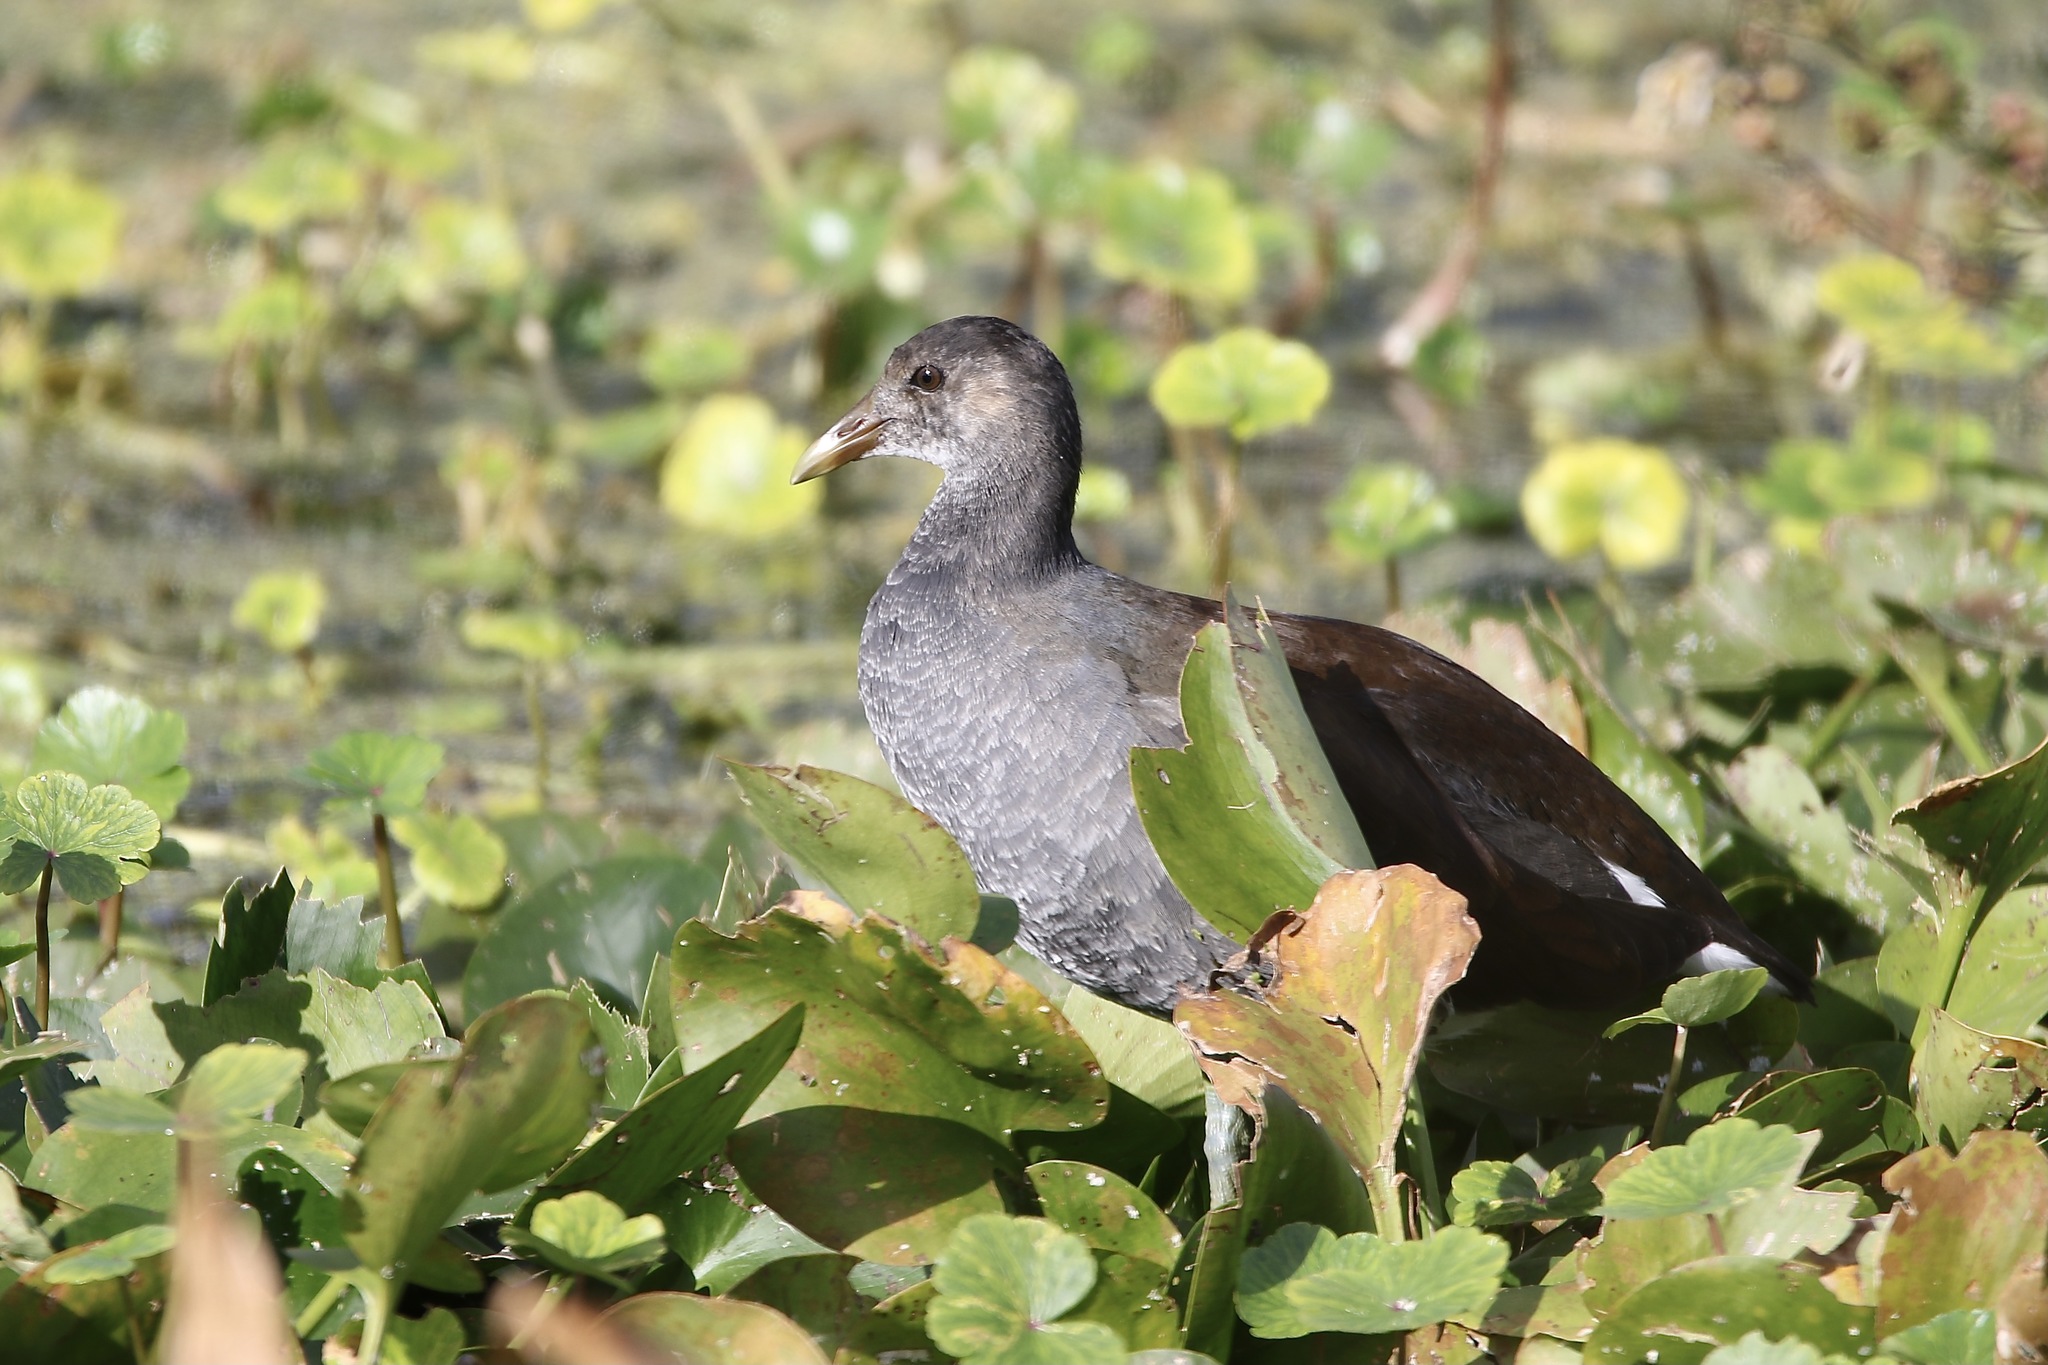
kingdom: Animalia
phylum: Chordata
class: Aves
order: Gruiformes
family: Rallidae
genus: Gallinula
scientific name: Gallinula chloropus
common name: Common moorhen
